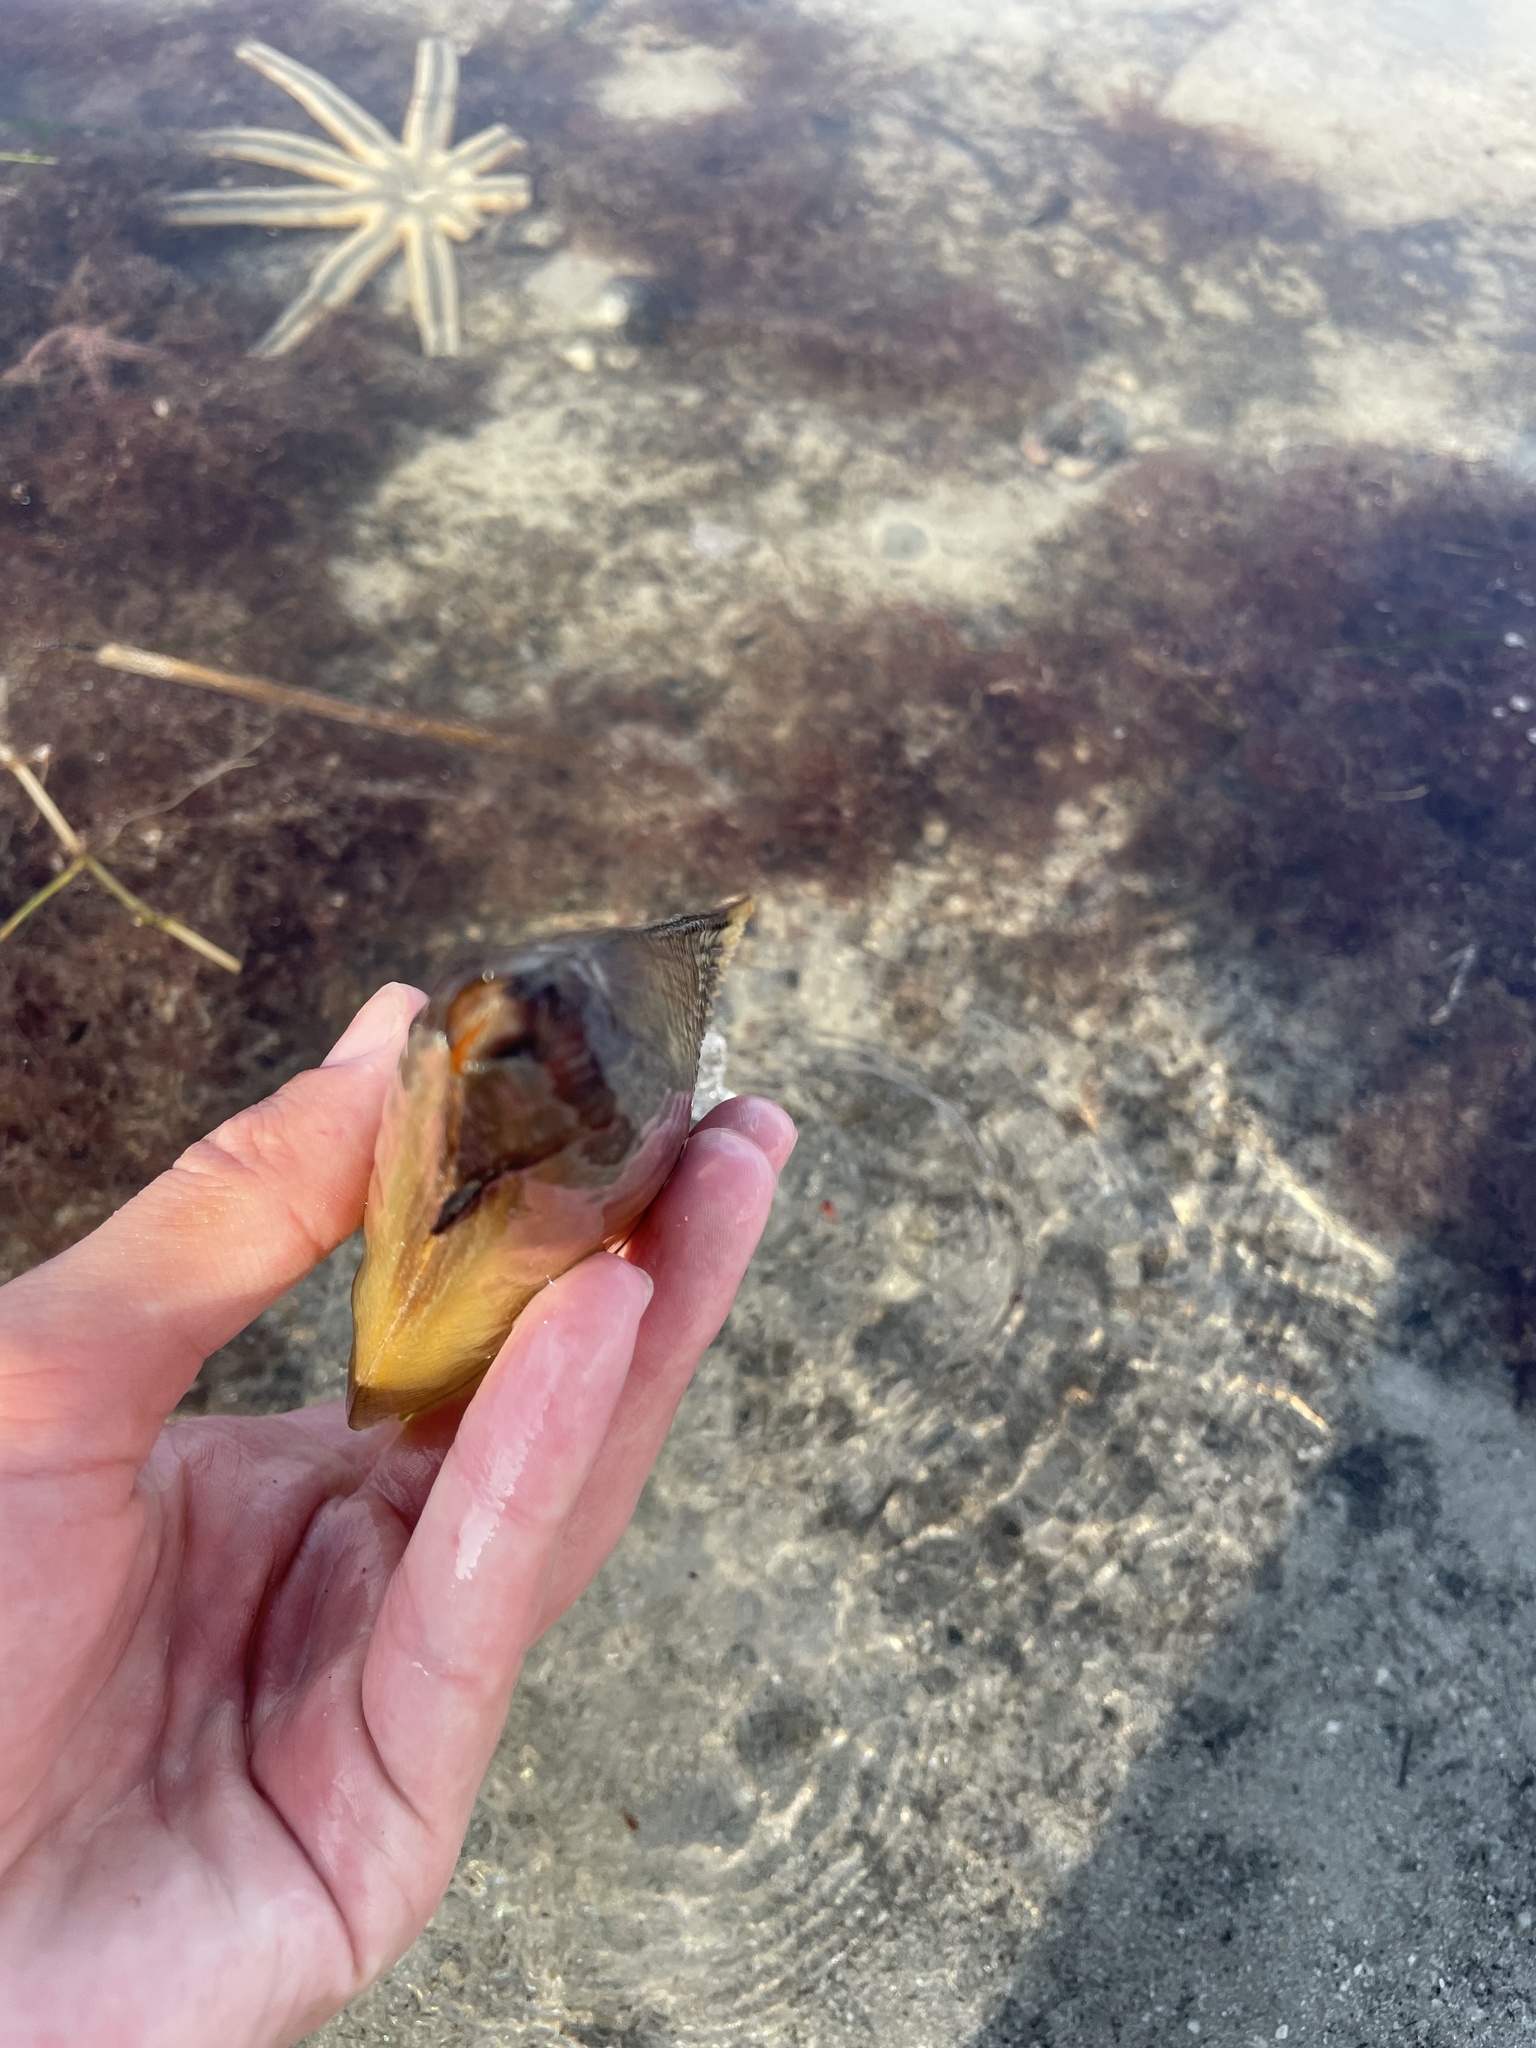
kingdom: Animalia
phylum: Mollusca
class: Bivalvia
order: Ostreida
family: Pinnidae
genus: Atrina
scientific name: Atrina serrata
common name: Saw-toothed penshell
